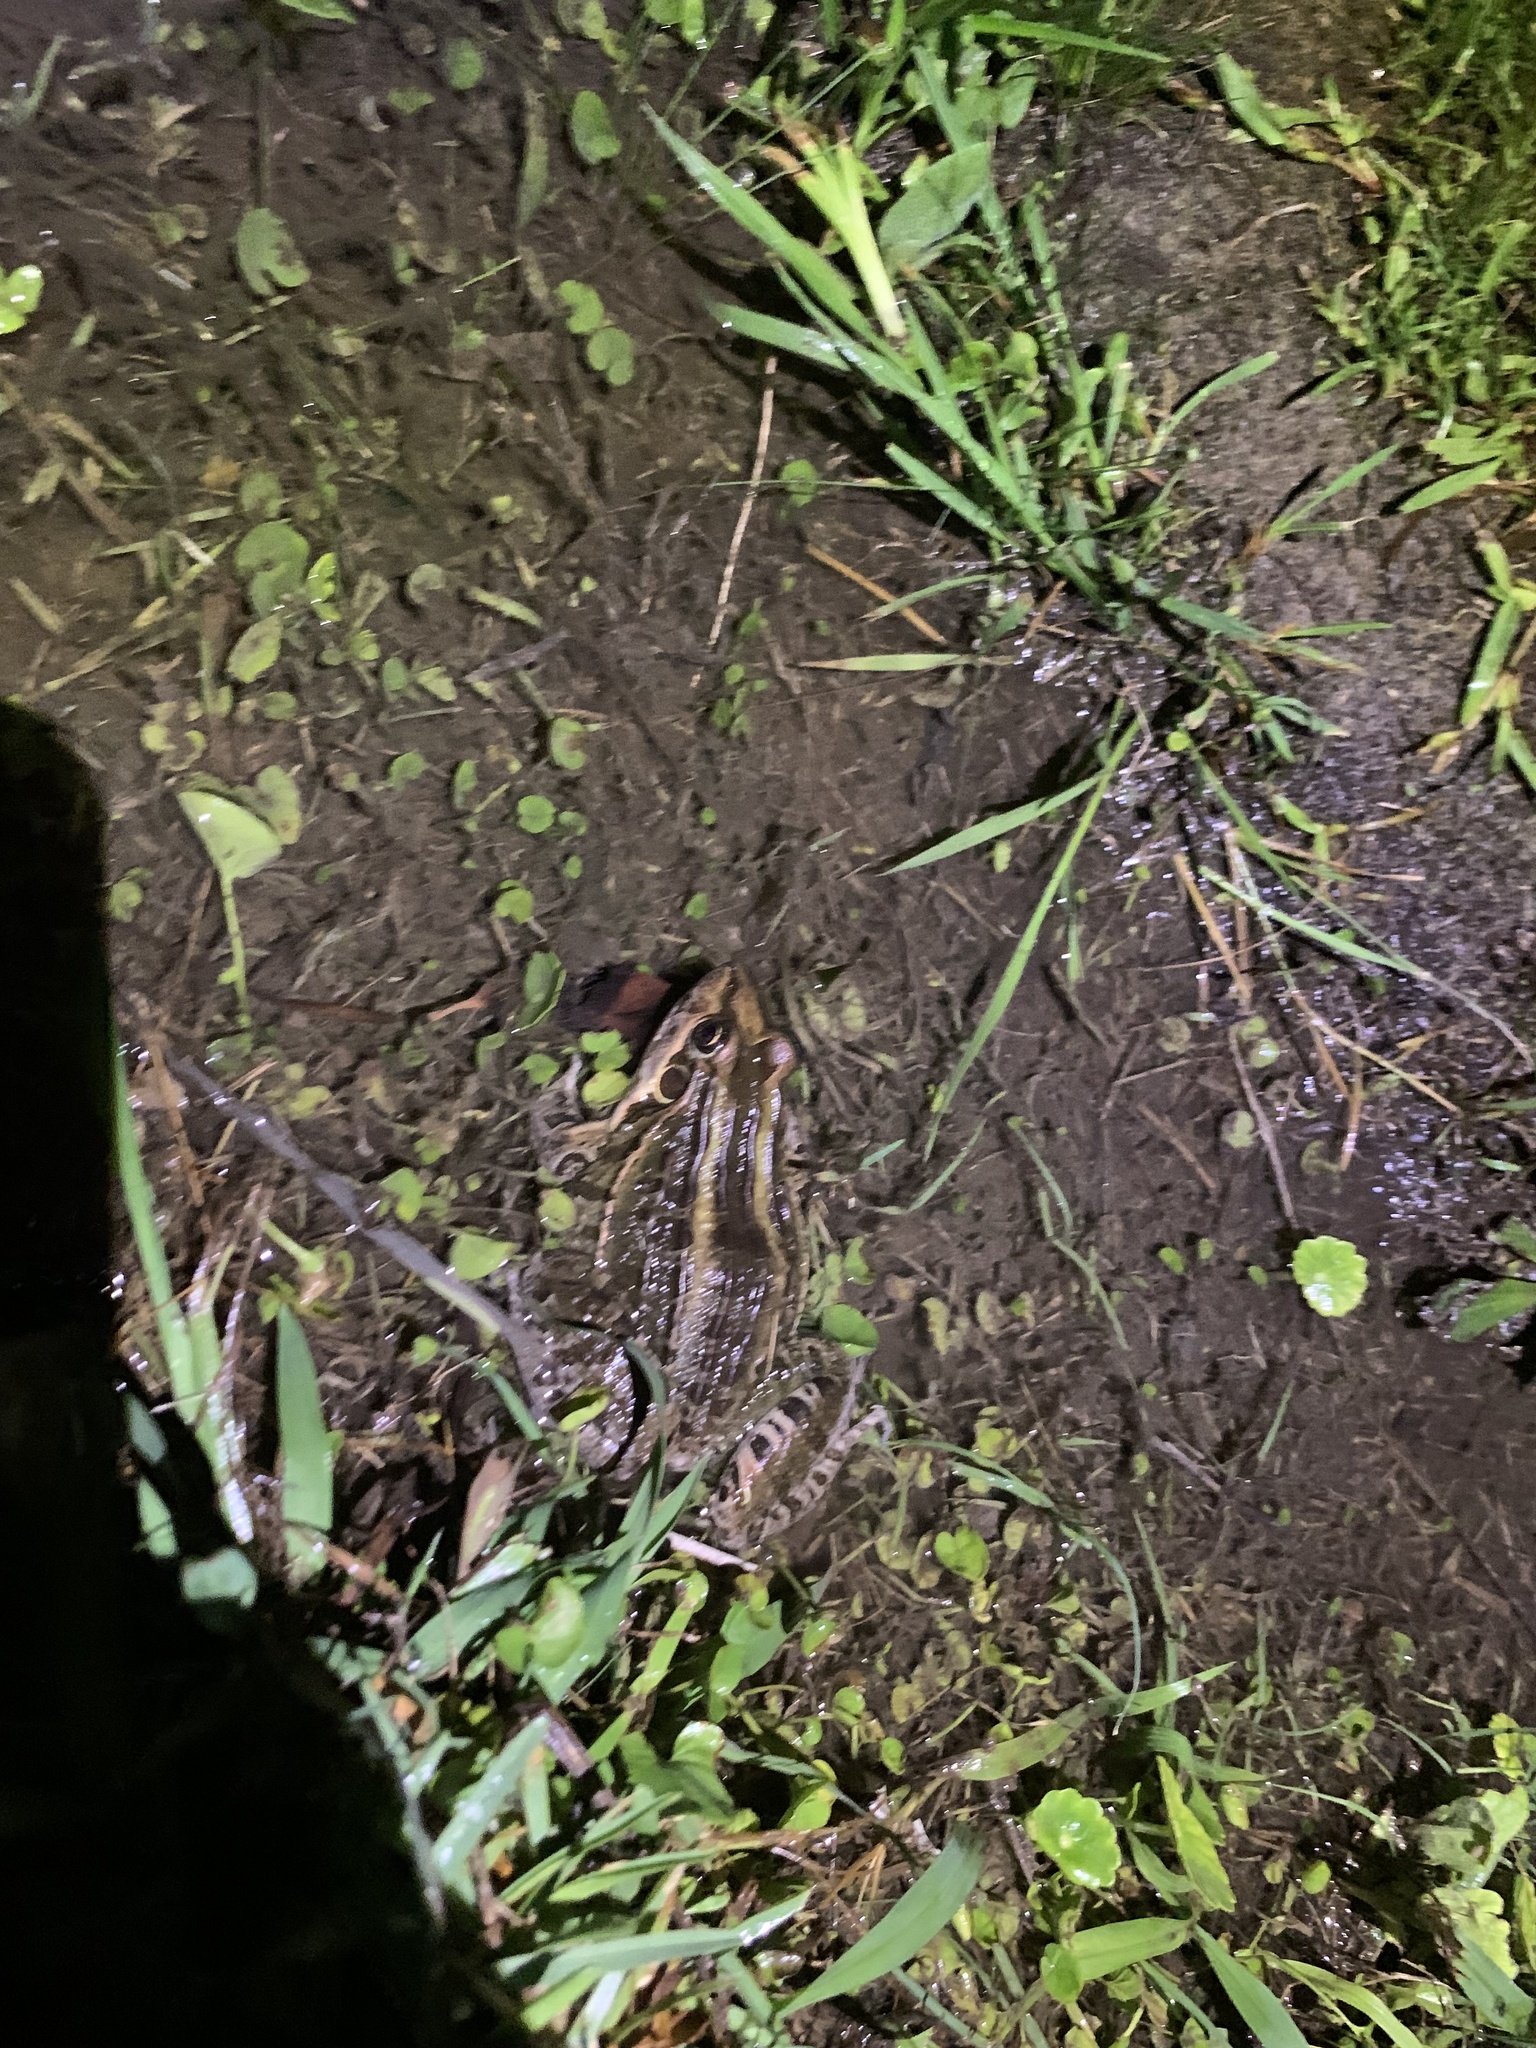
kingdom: Animalia
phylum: Chordata
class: Amphibia
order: Anura
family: Leptodactylidae
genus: Leptodactylus
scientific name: Leptodactylus luctator
